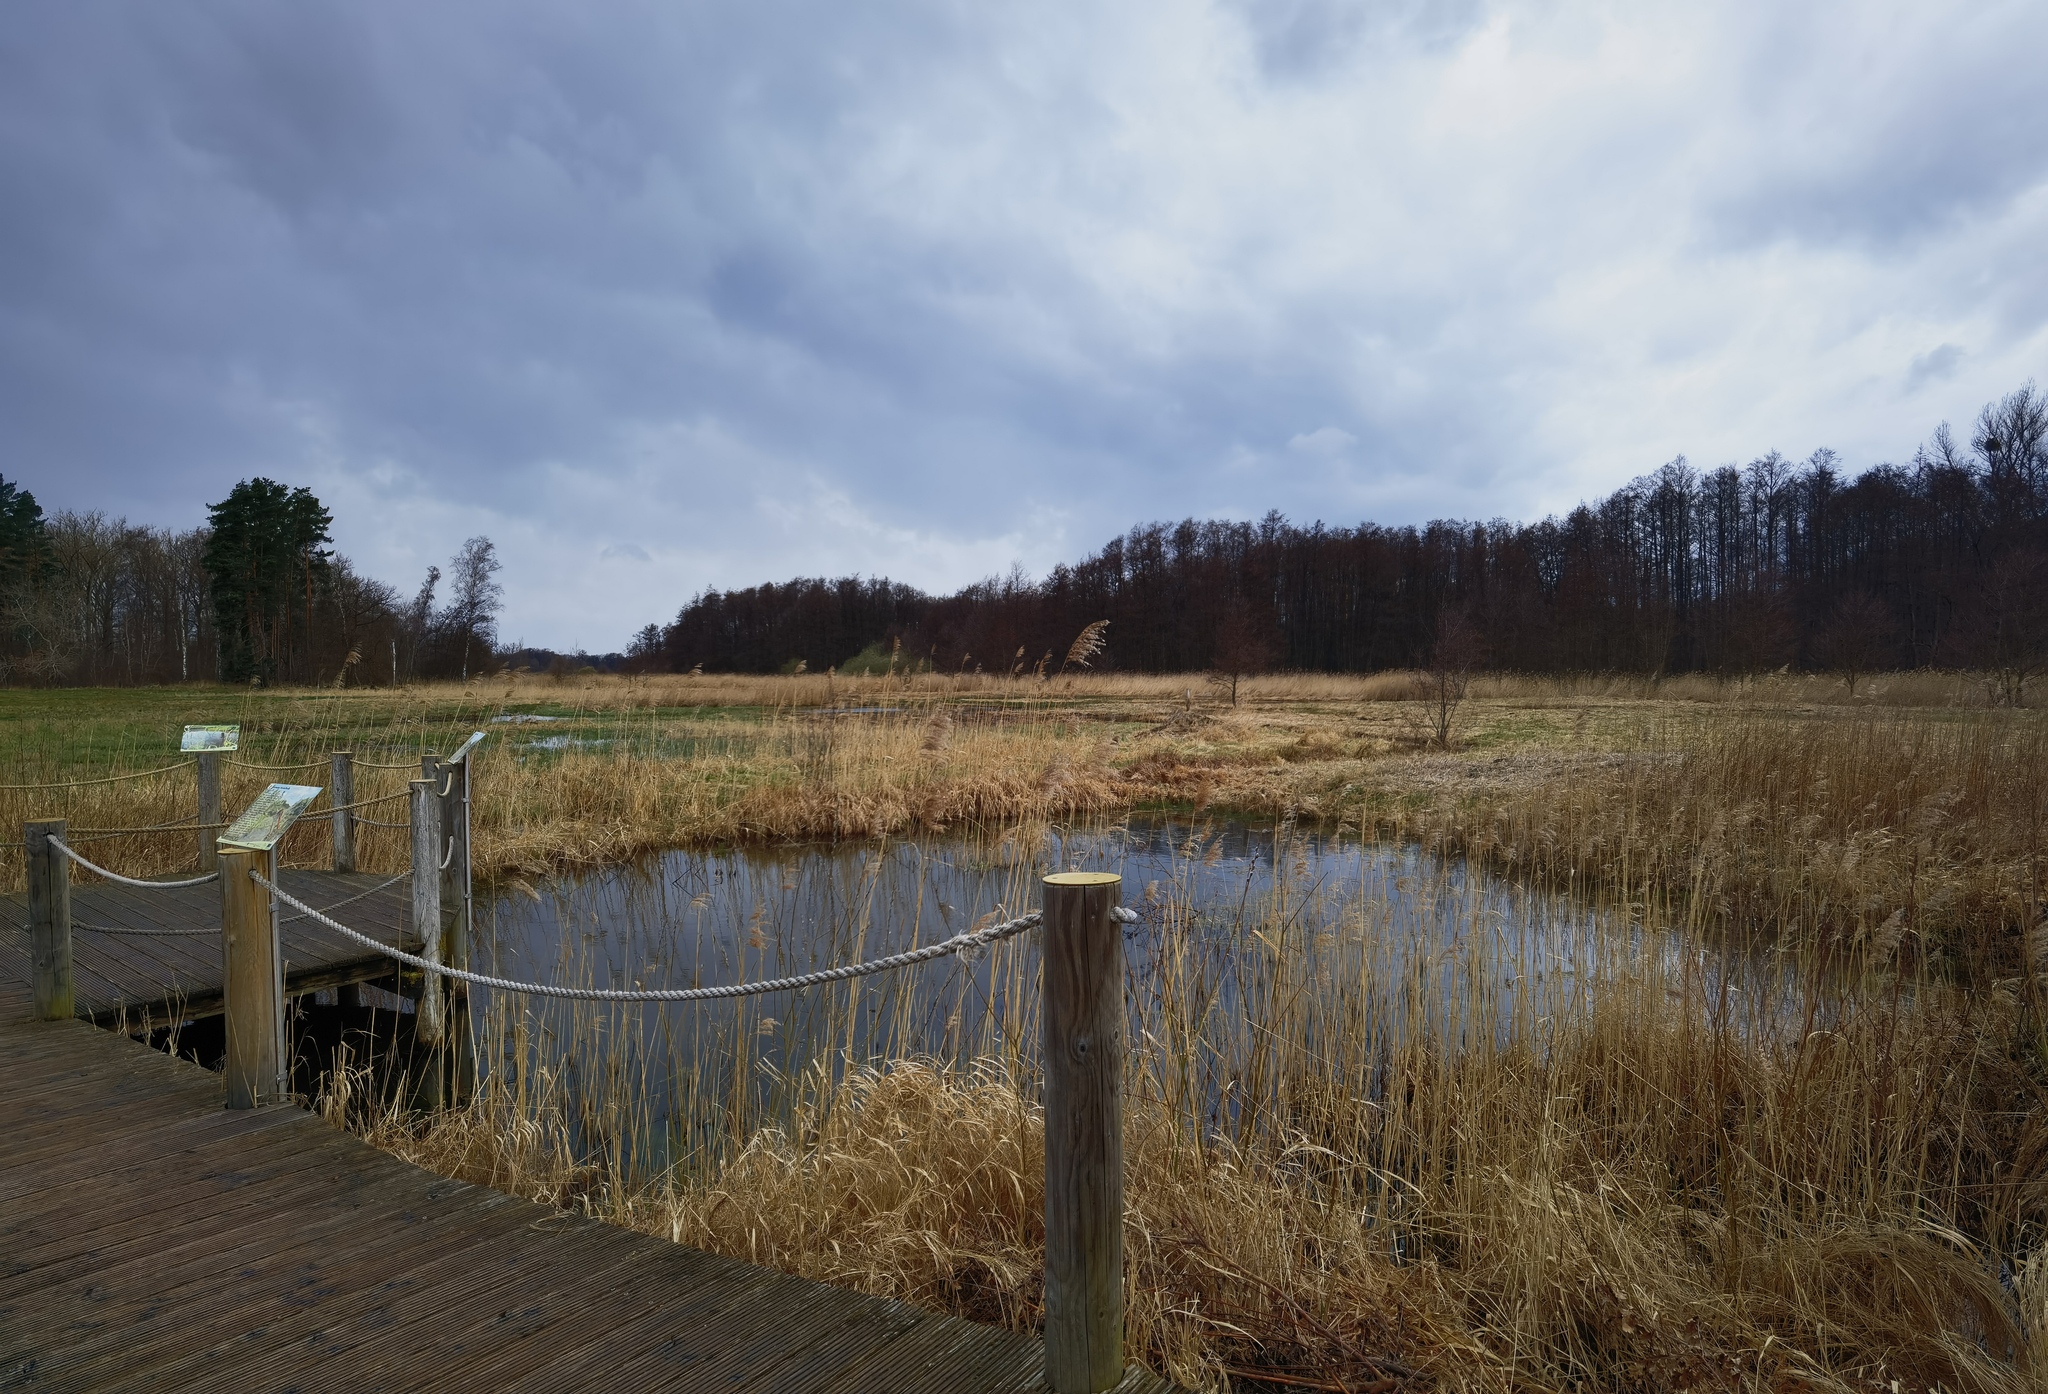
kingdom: Animalia
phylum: Chordata
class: Amphibia
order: Caudata
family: Salamandridae
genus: Triturus
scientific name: Triturus cristatus
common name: Crested newt
